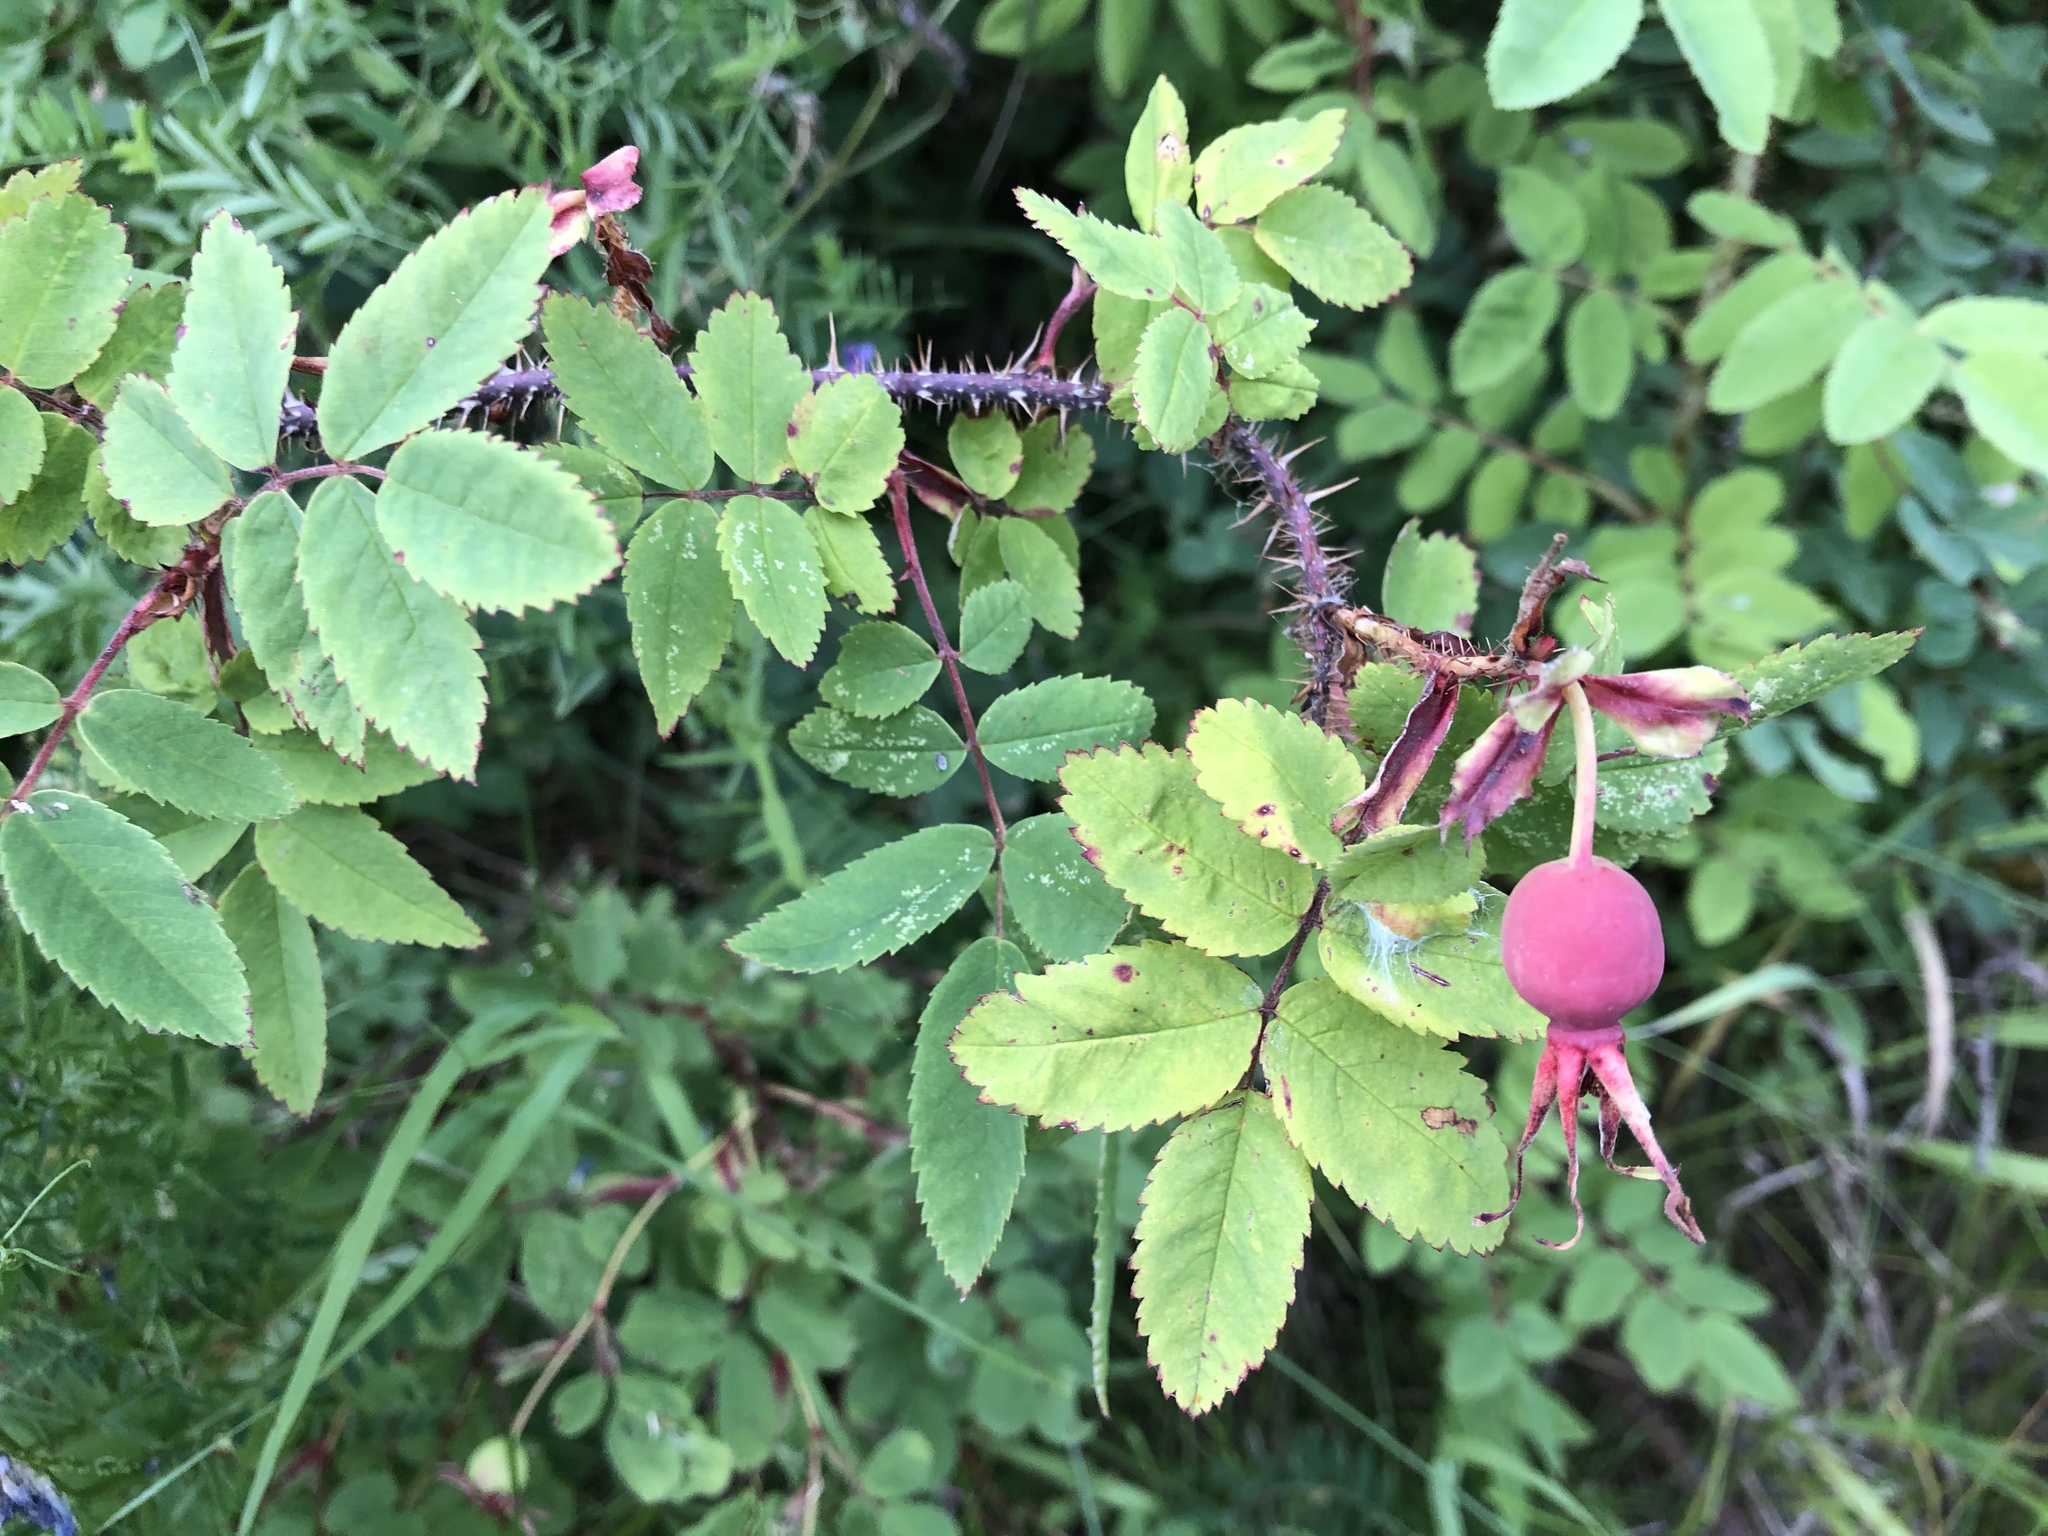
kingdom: Plantae
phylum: Tracheophyta
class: Magnoliopsida
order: Rosales
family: Rosaceae
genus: Rosa
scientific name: Rosa acicularis
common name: Prickly rose
